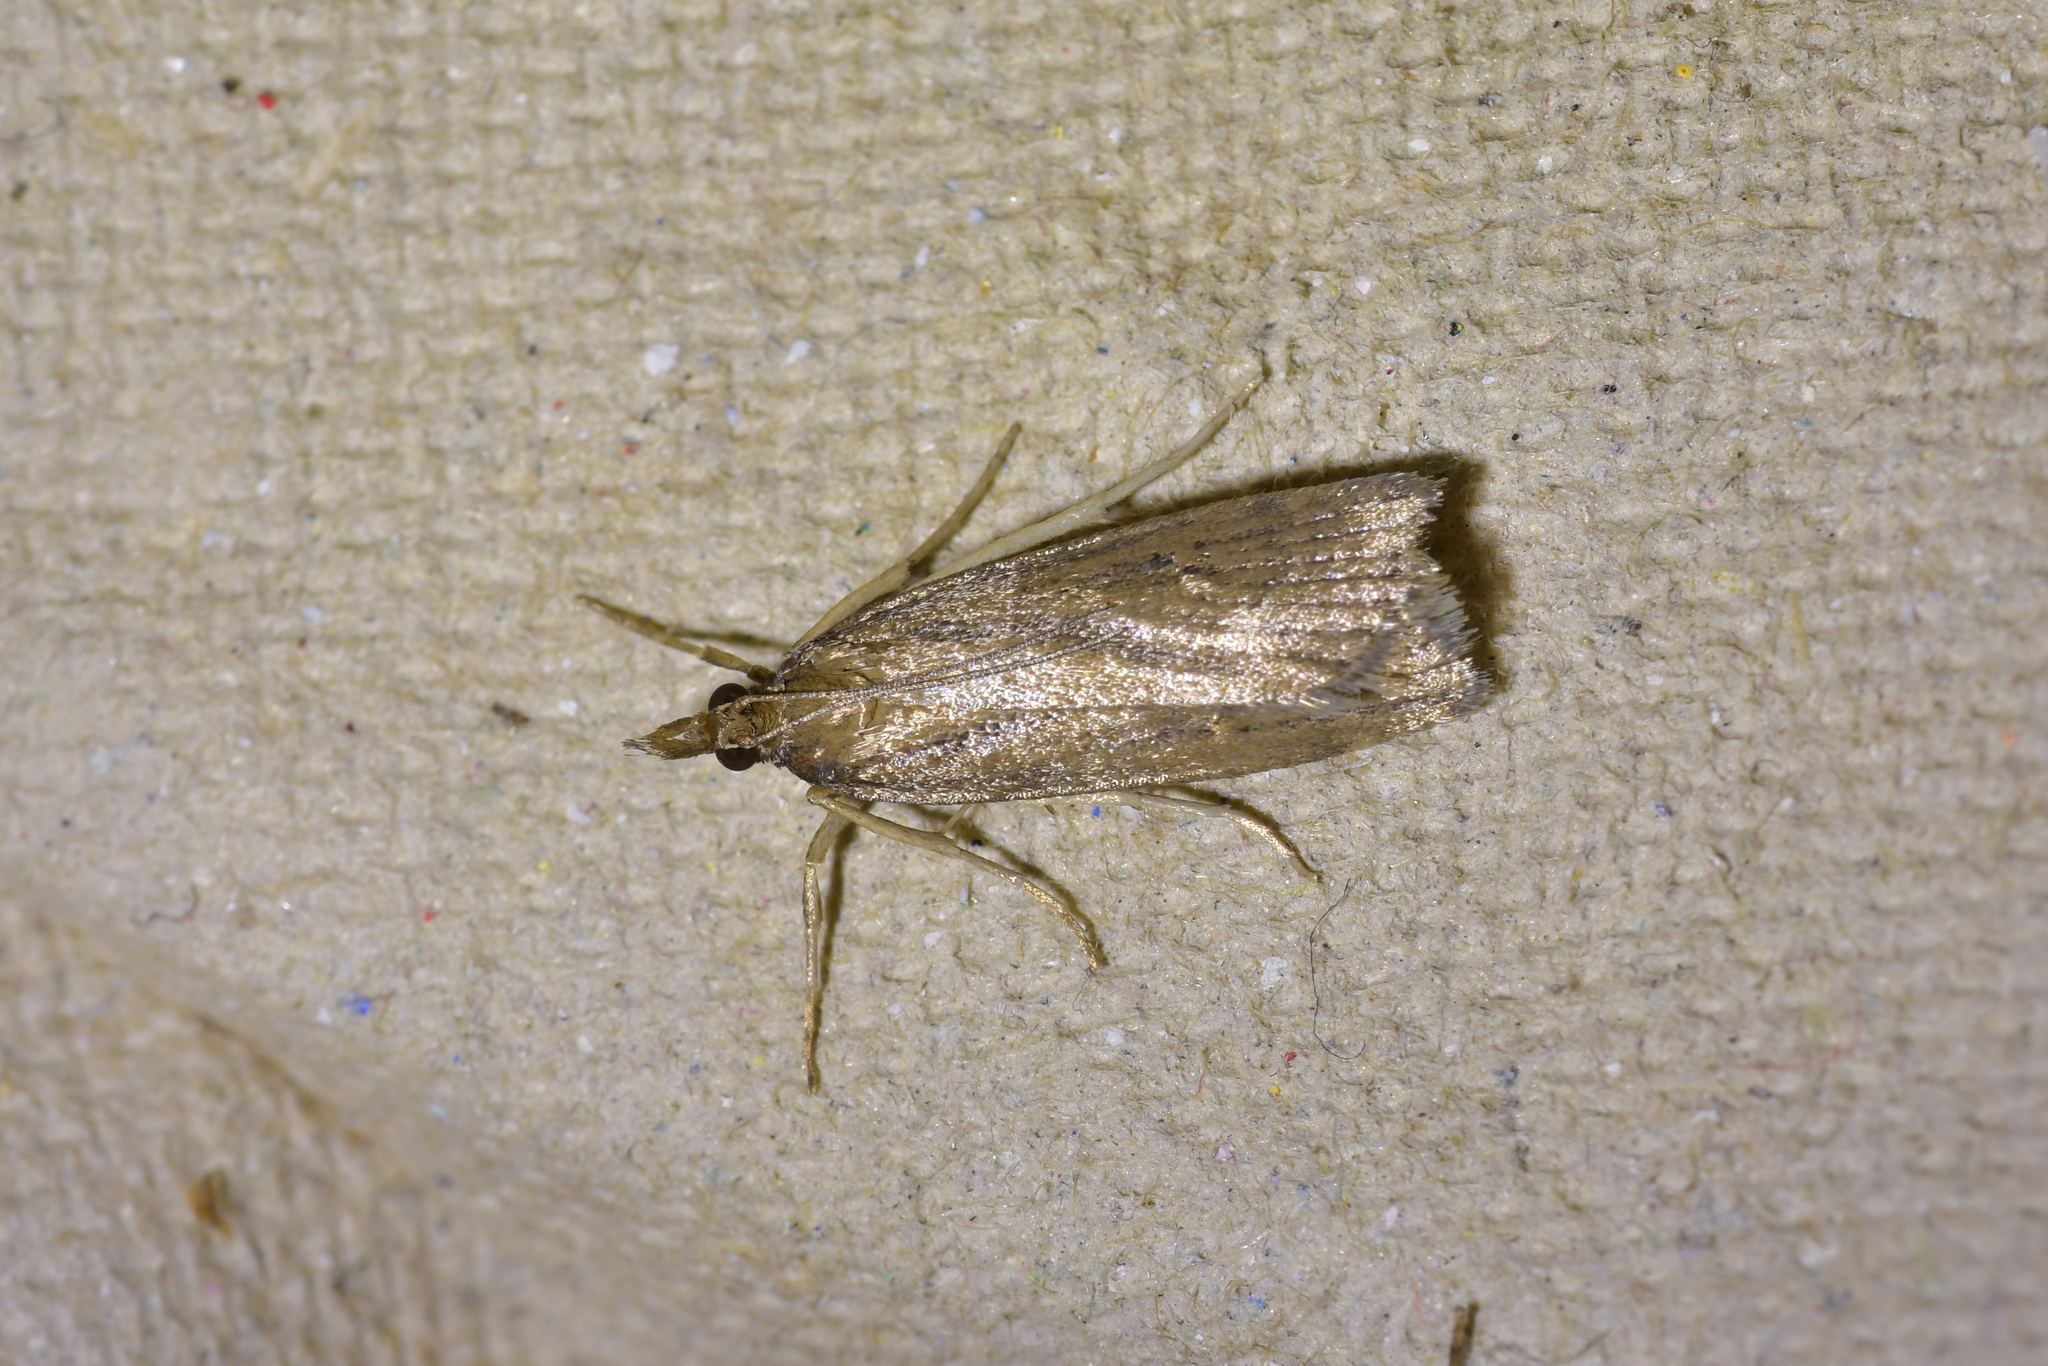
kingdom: Animalia
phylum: Arthropoda
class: Insecta
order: Lepidoptera
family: Crambidae
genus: Eudonia
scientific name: Eudonia octophora
